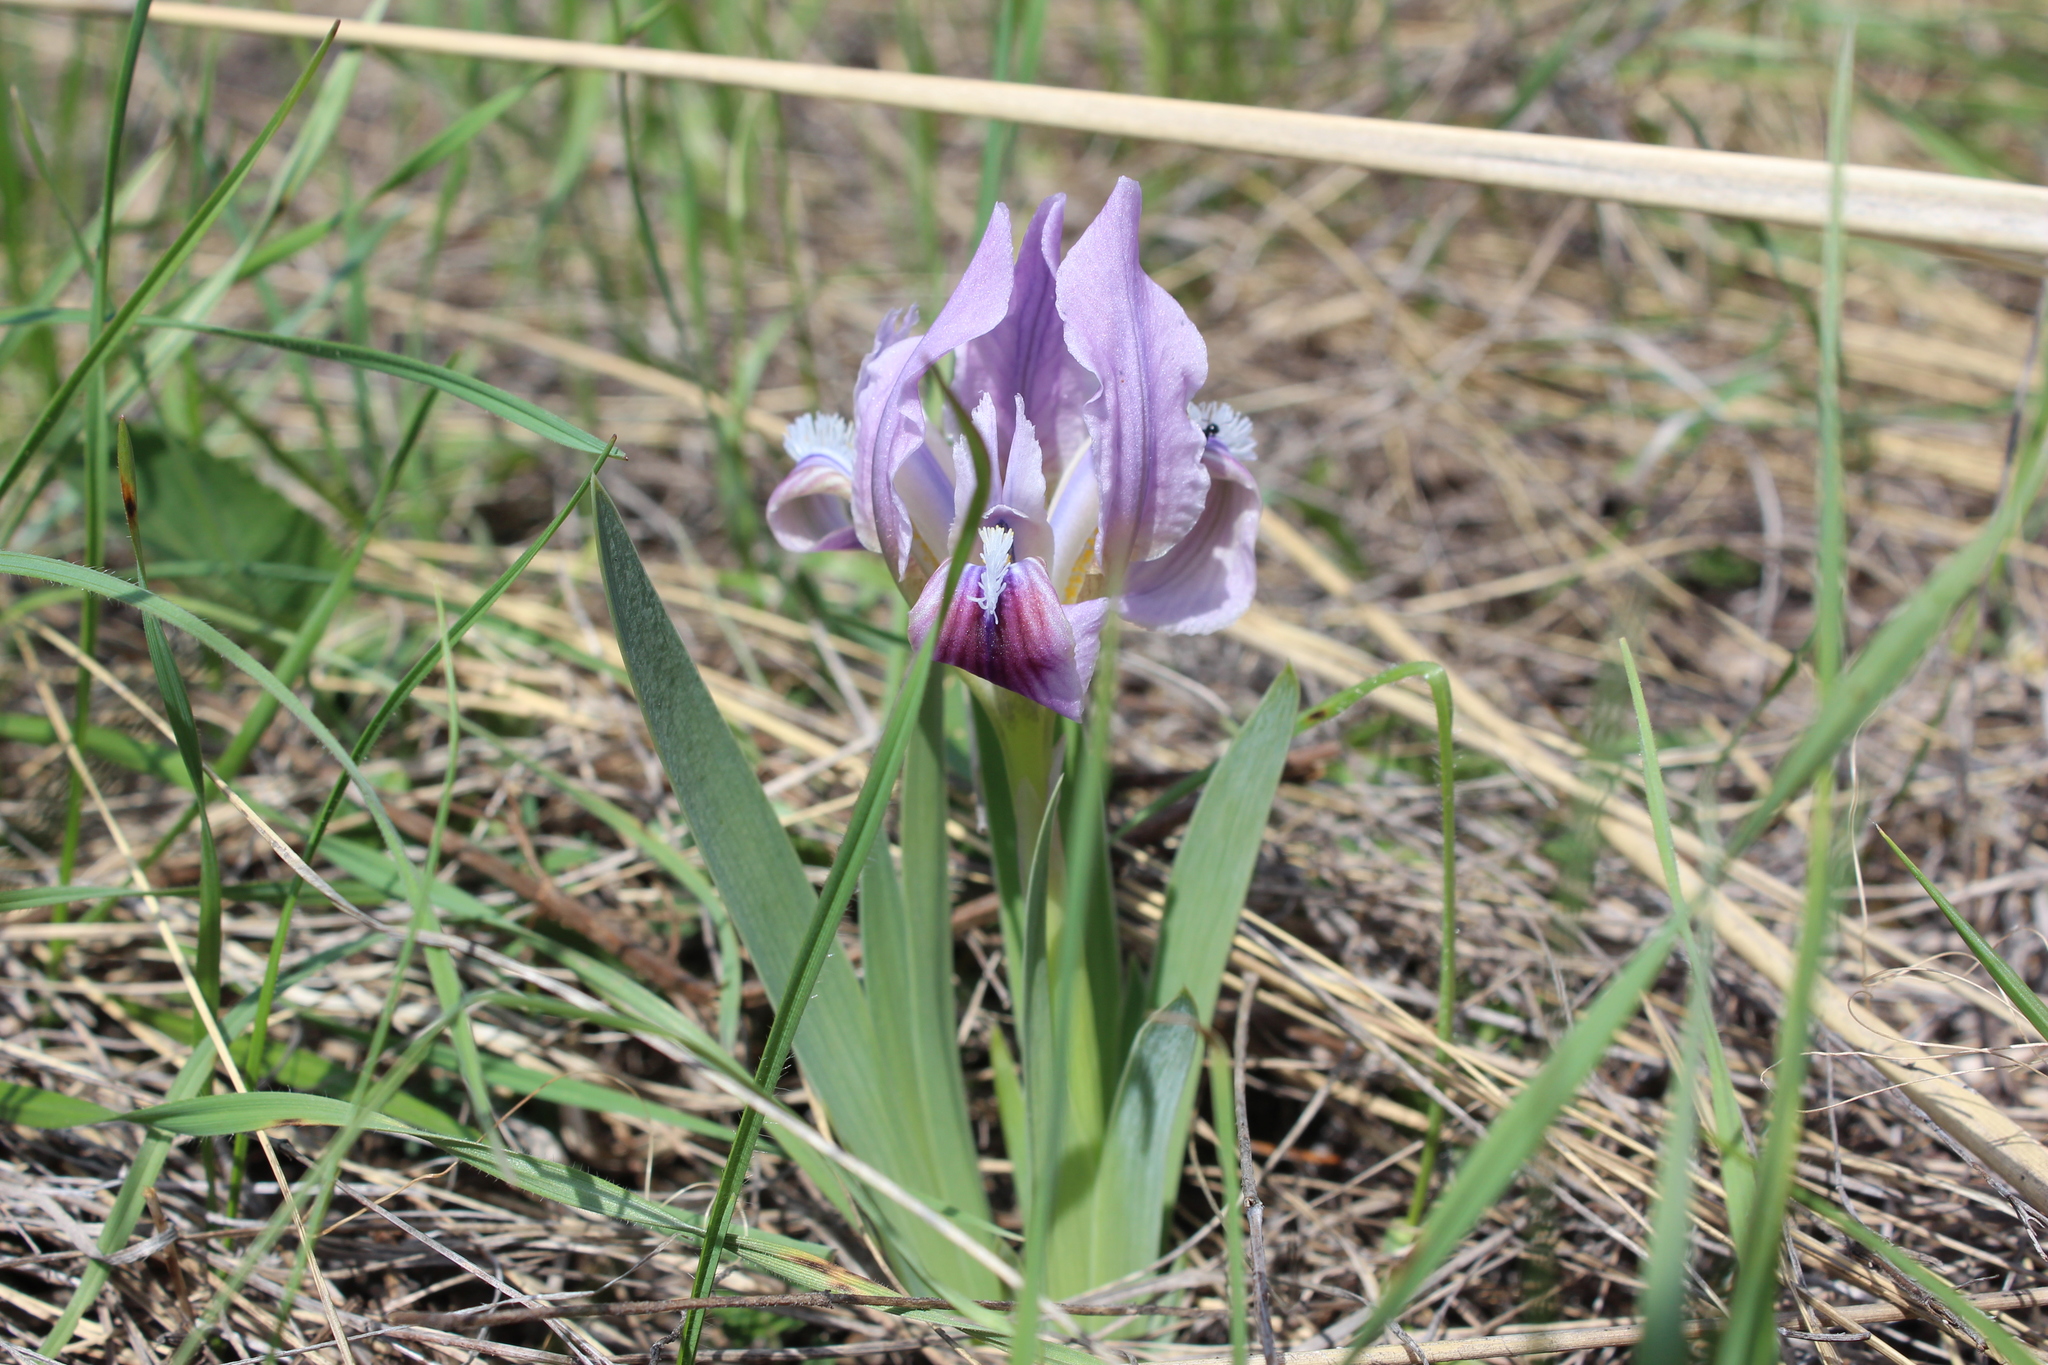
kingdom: Plantae
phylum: Tracheophyta
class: Liliopsida
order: Asparagales
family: Iridaceae
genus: Iris
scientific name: Iris pumila
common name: Dwarf iris
